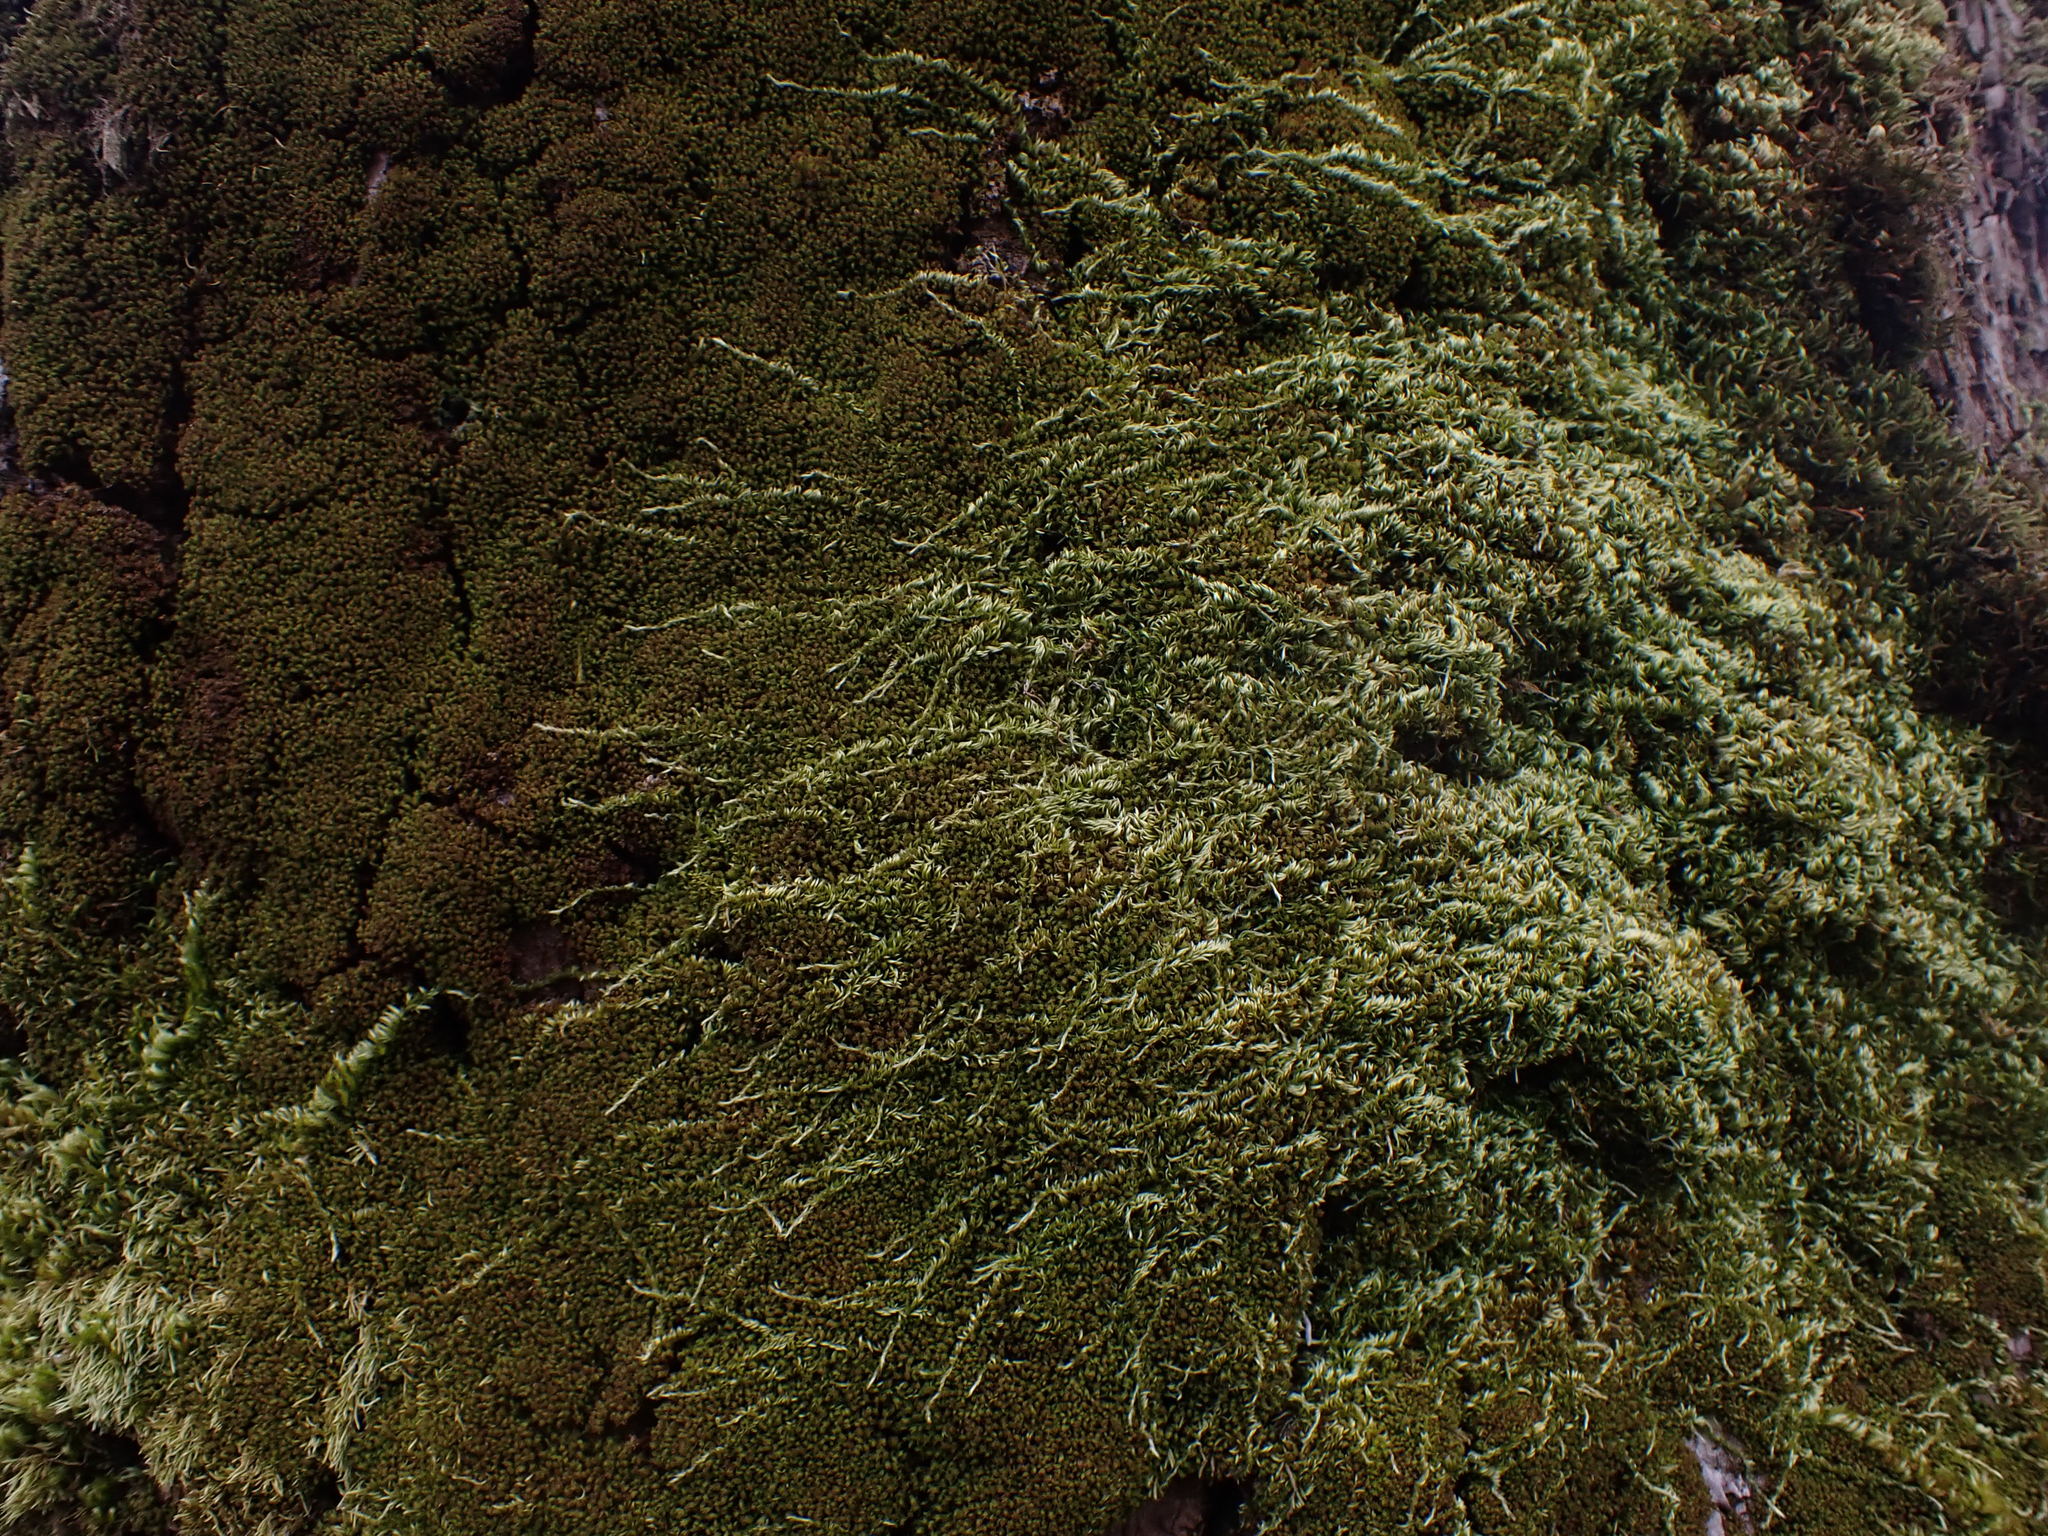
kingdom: Plantae
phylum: Bryophyta
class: Bryopsida
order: Hypnales
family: Brachytheciaceae
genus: Homalothecium
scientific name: Homalothecium nuttallii
